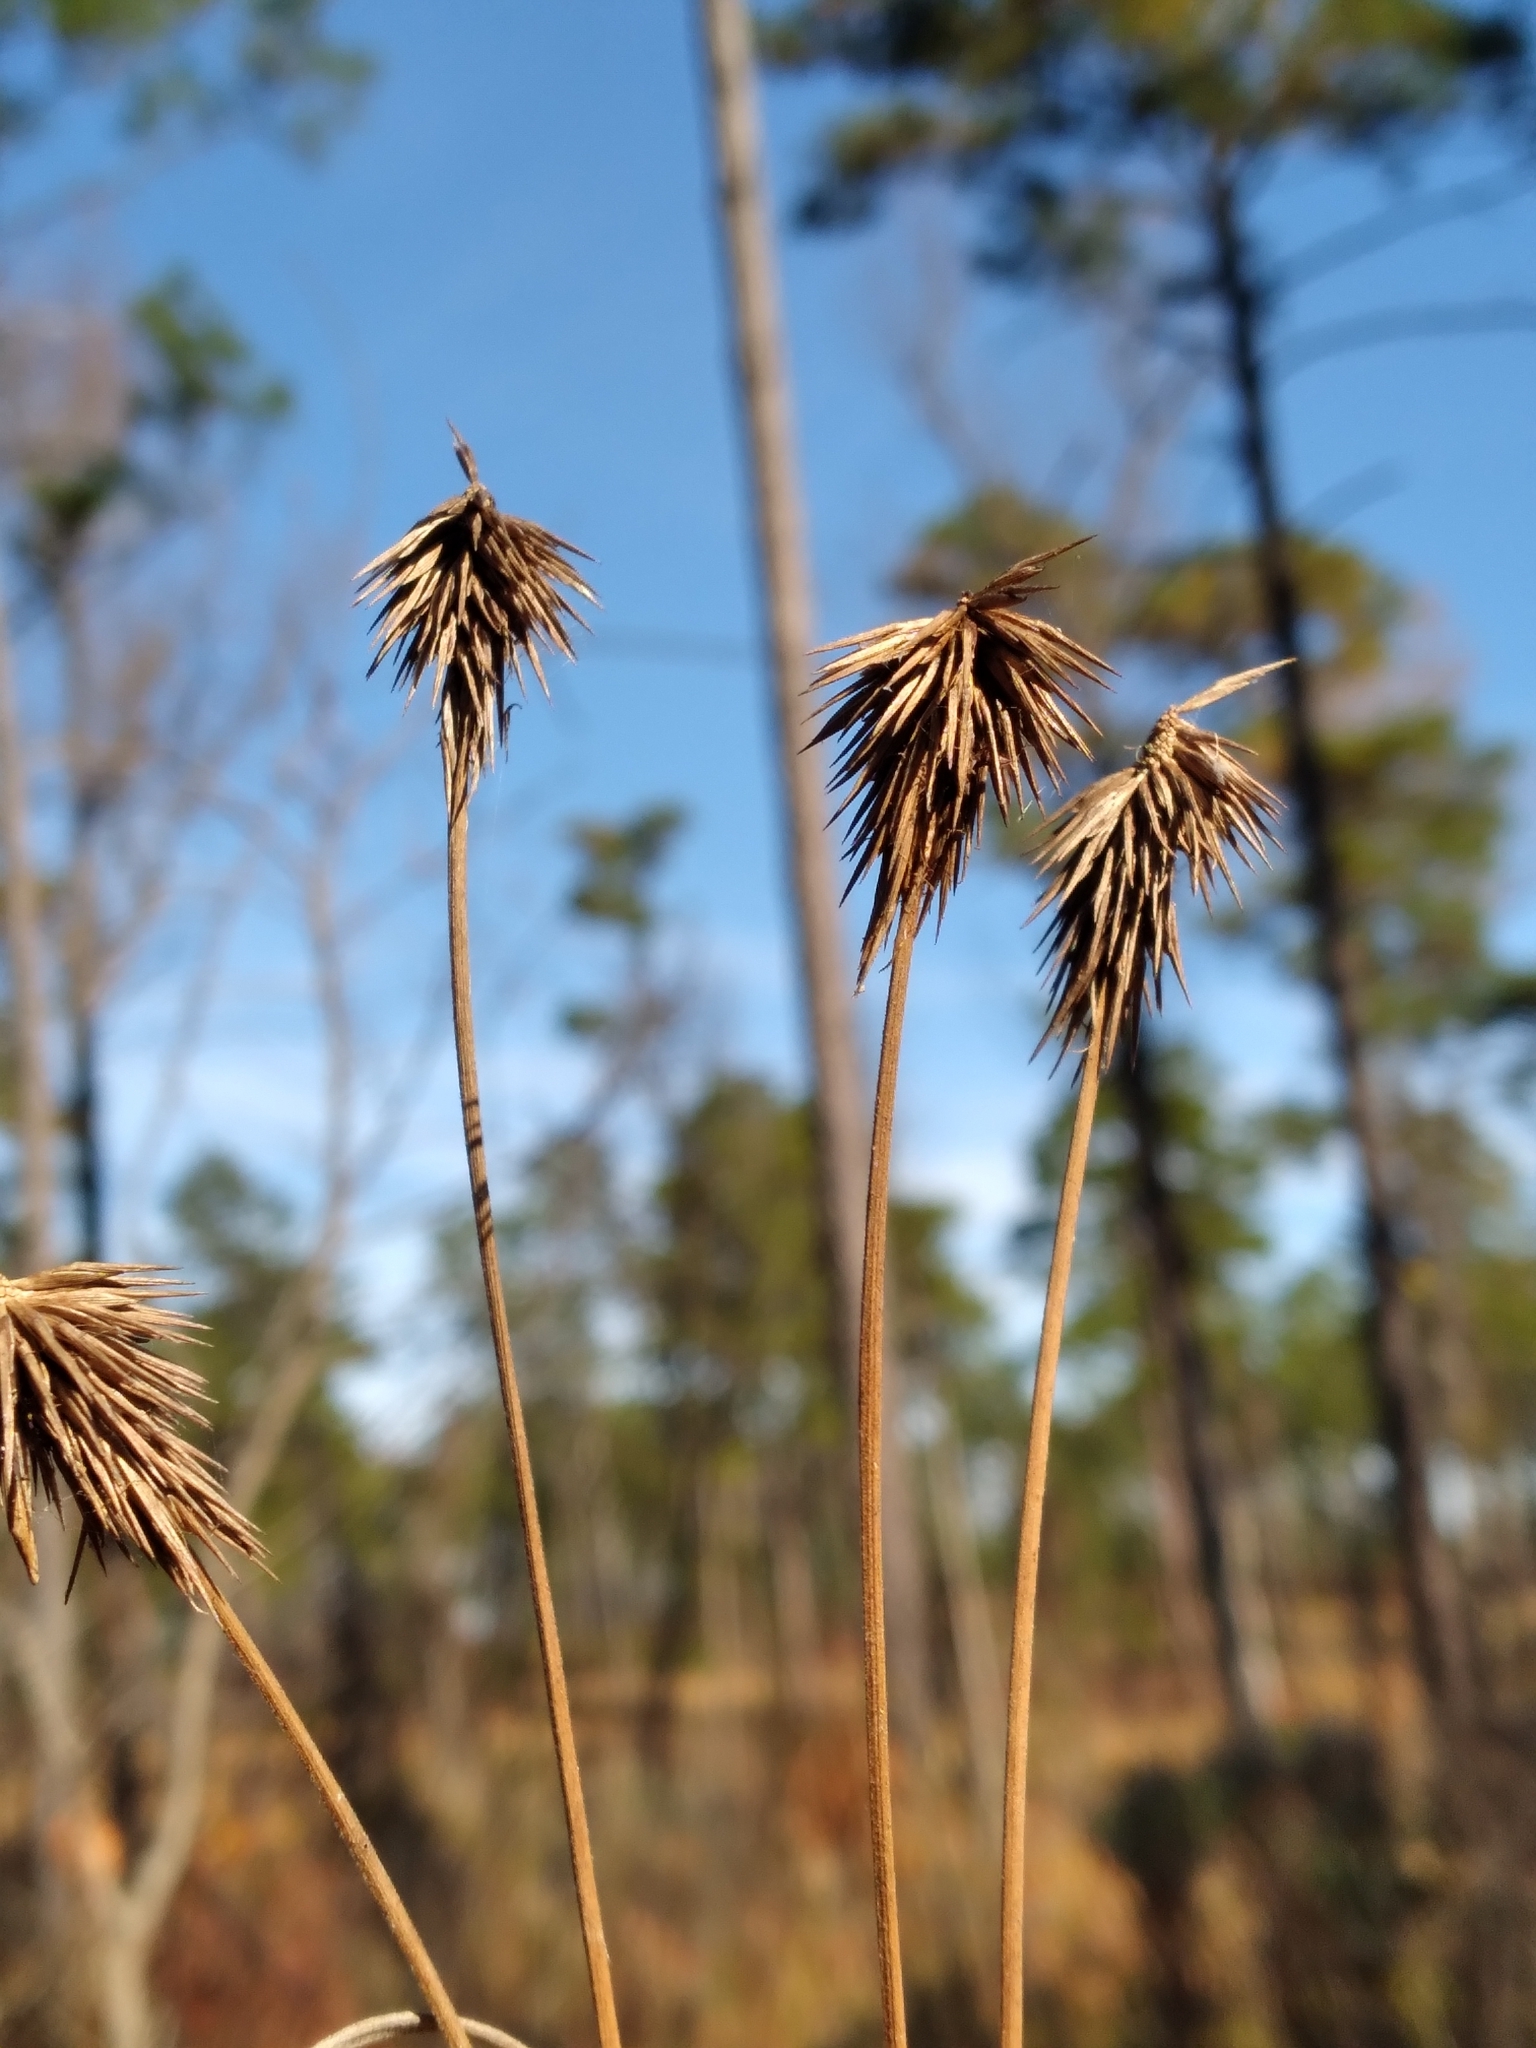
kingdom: Plantae
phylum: Tracheophyta
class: Liliopsida
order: Poales
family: Cyperaceae
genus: Cyperus
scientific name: Cyperus plukenetii
